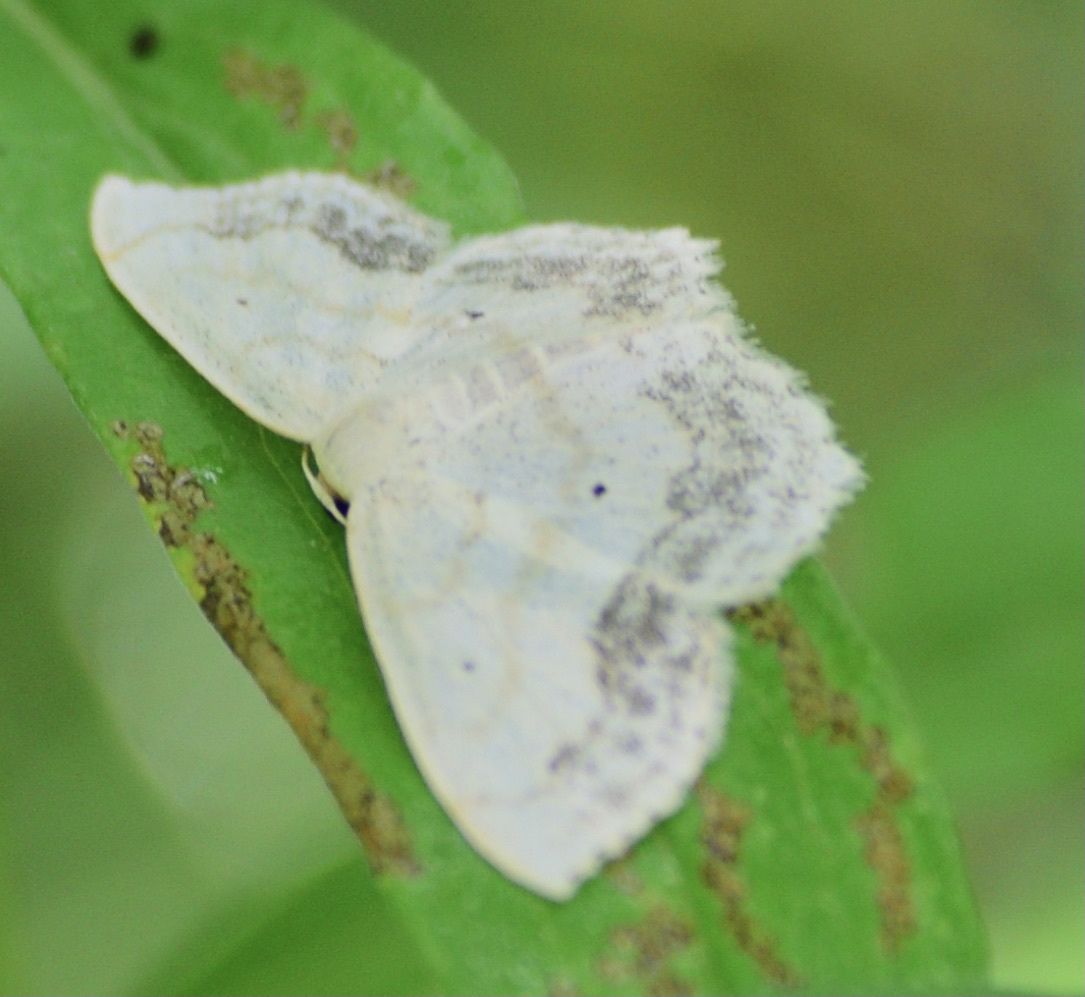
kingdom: Animalia
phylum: Arthropoda
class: Insecta
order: Lepidoptera
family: Geometridae
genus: Scopula
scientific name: Scopula limboundata
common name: Large lace border
